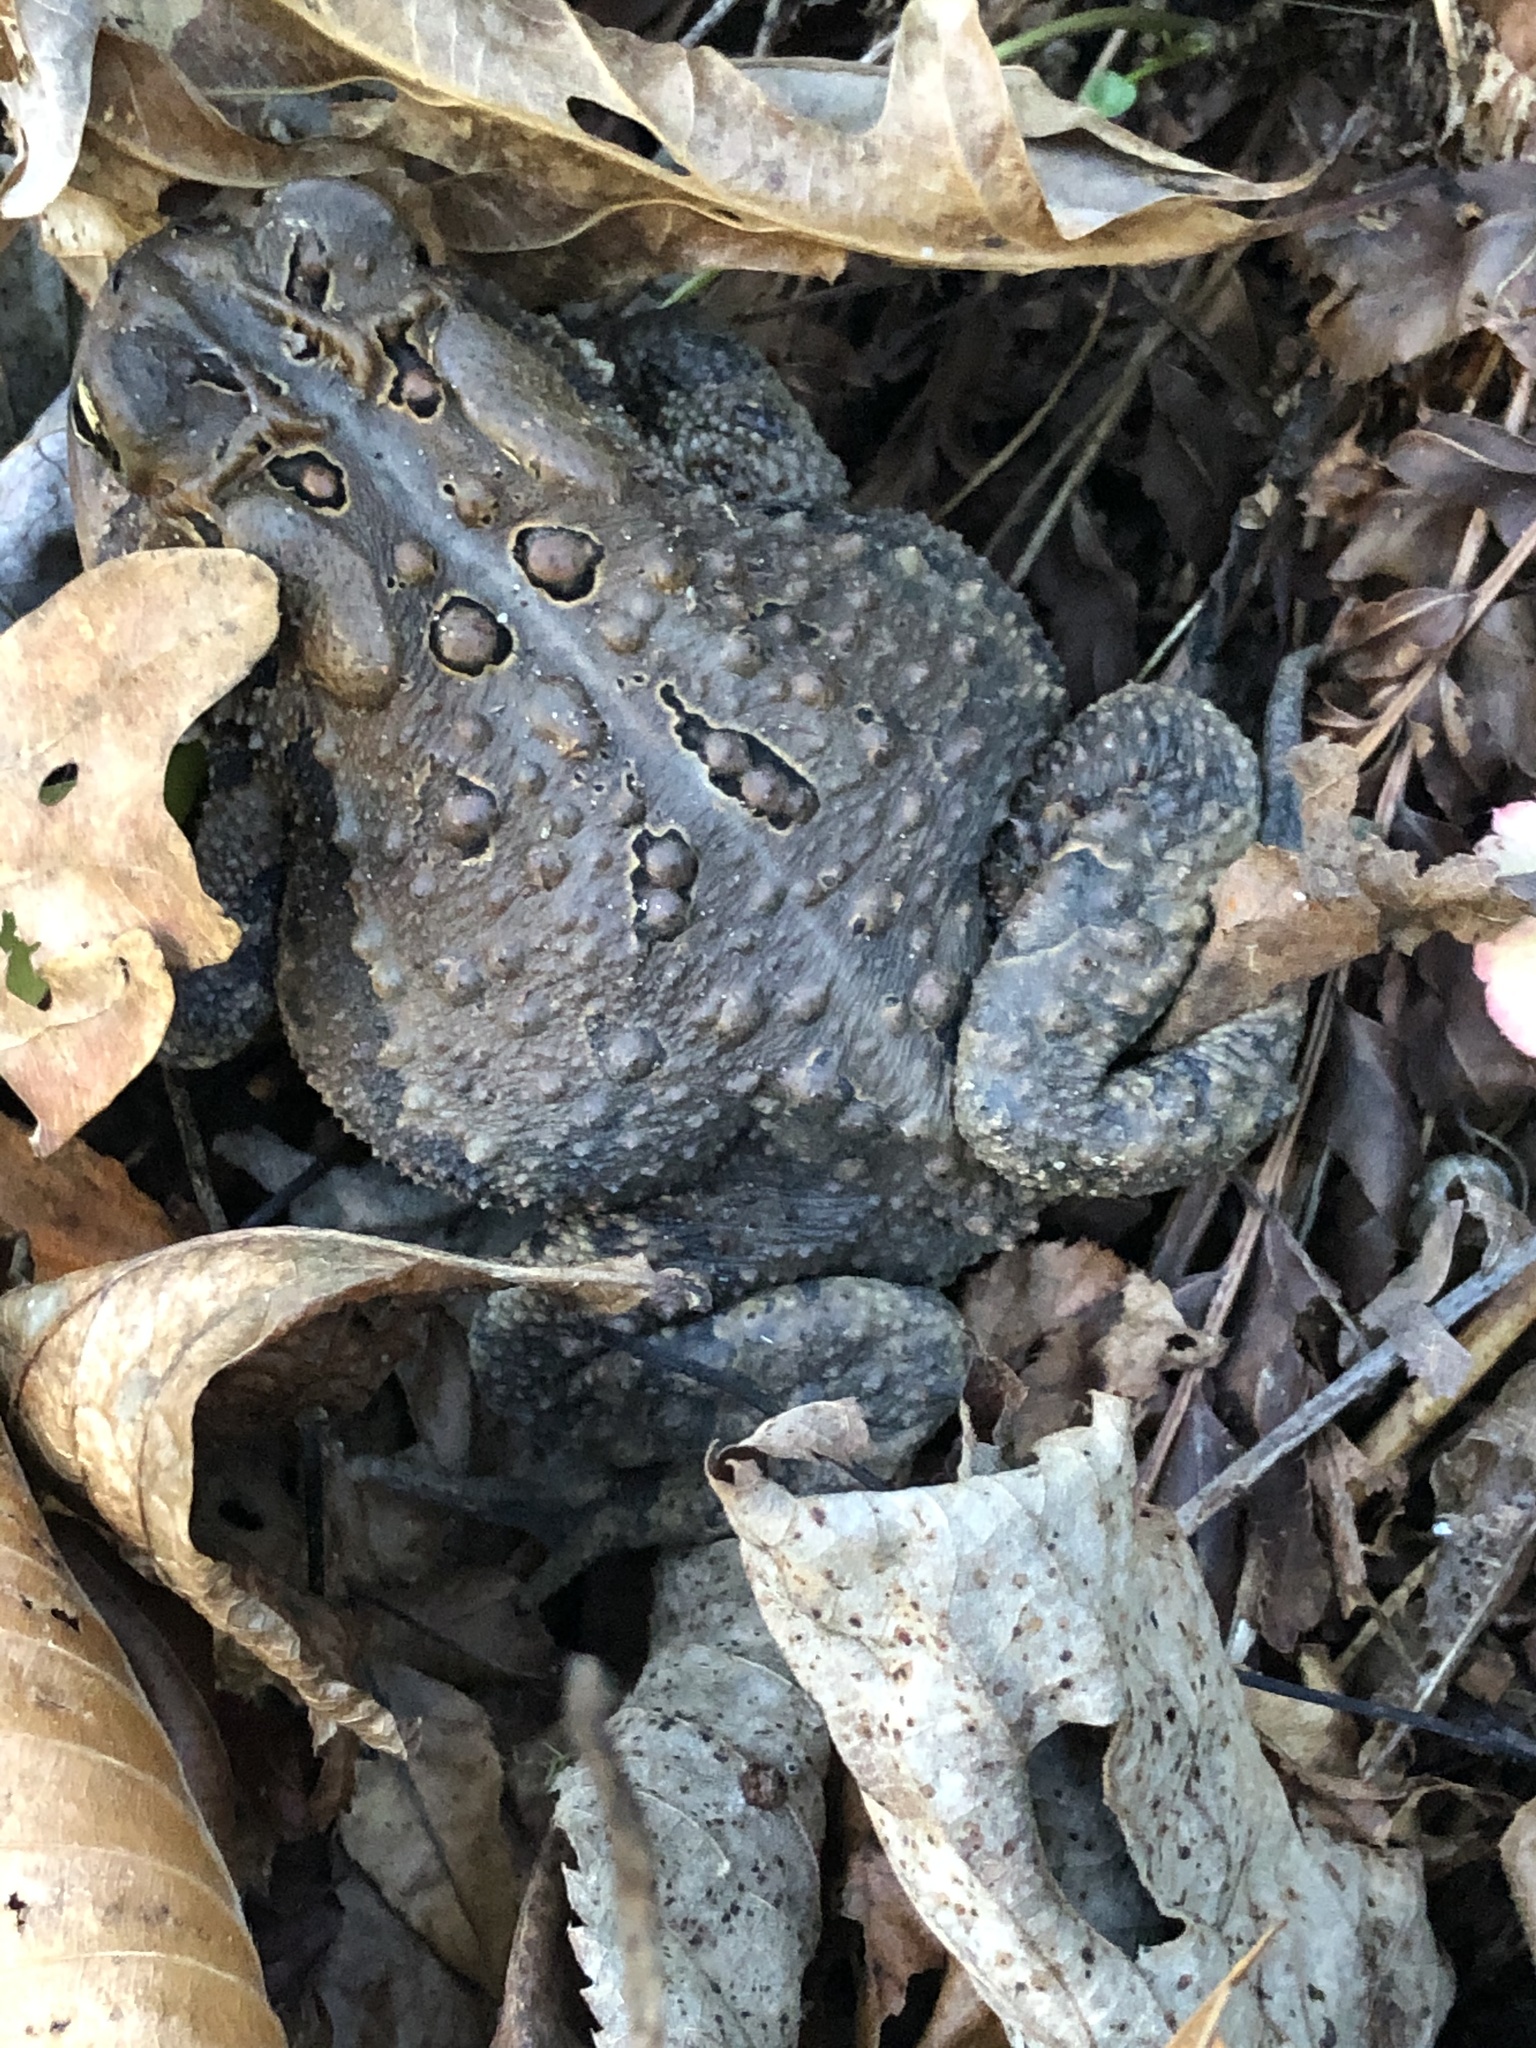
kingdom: Animalia
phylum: Chordata
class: Amphibia
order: Anura
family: Bufonidae
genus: Anaxyrus
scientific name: Anaxyrus americanus
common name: American toad
